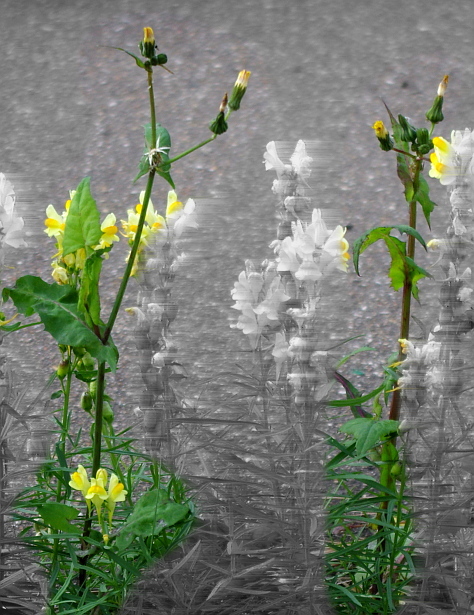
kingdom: Plantae
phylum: Tracheophyta
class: Magnoliopsida
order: Asterales
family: Asteraceae
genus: Sonchus
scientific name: Sonchus oleraceus
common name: Common sowthistle
